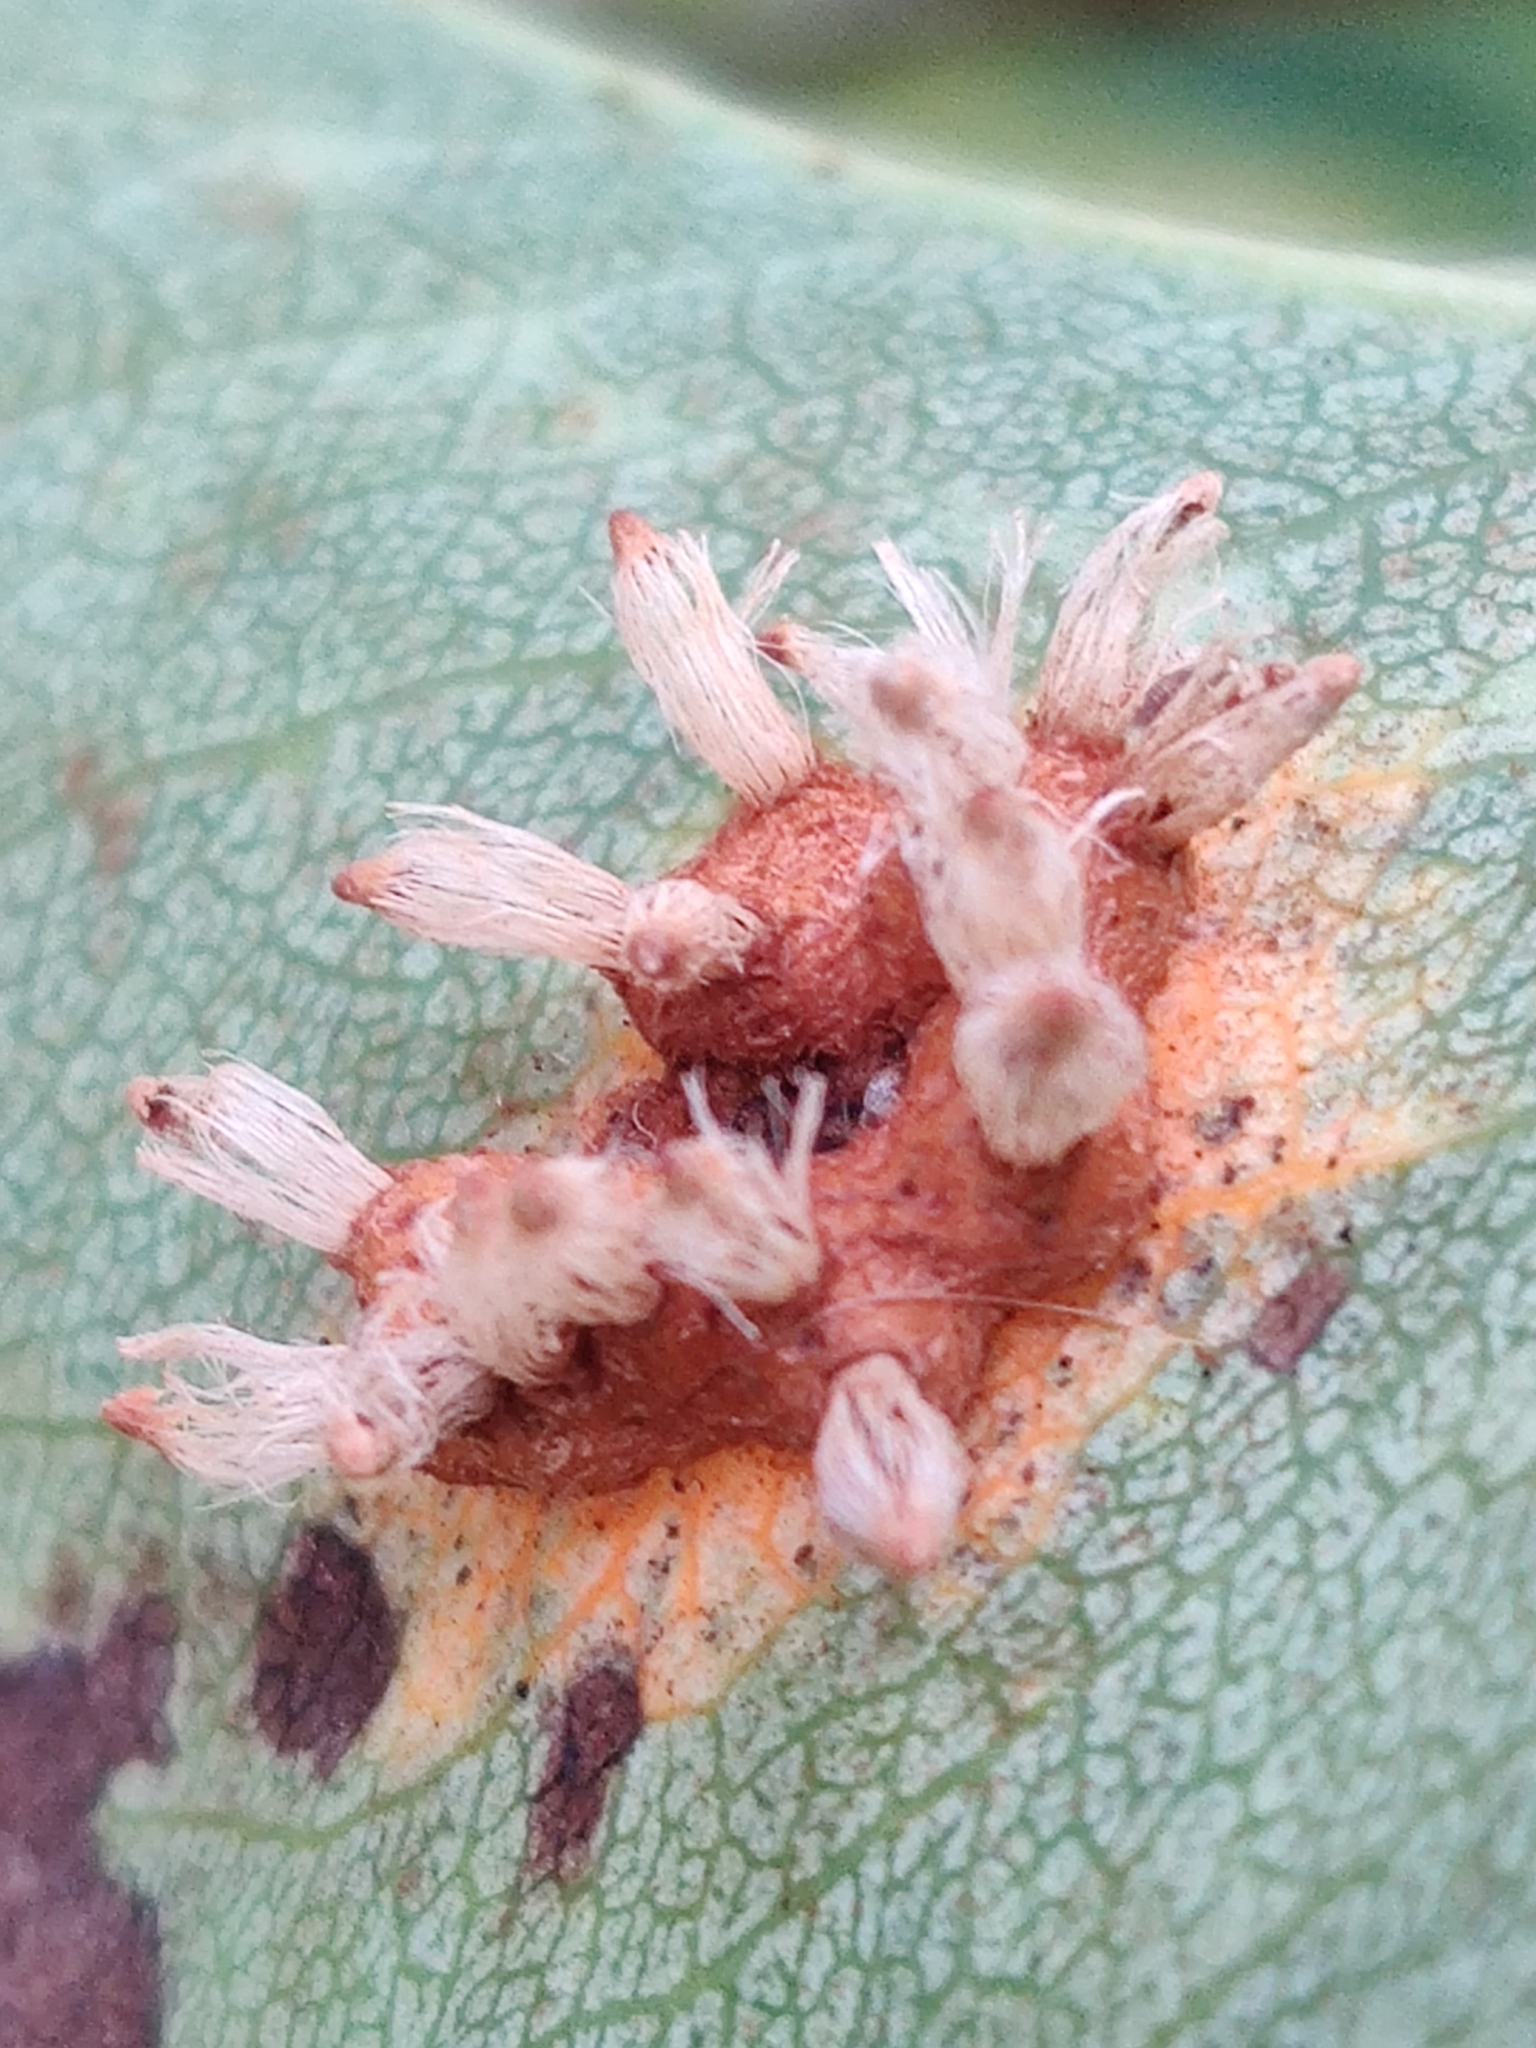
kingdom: Fungi
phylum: Basidiomycota
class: Pucciniomycetes
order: Pucciniales
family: Gymnosporangiaceae
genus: Gymnosporangium
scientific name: Gymnosporangium sabinae
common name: Pear trellis rust fungus
